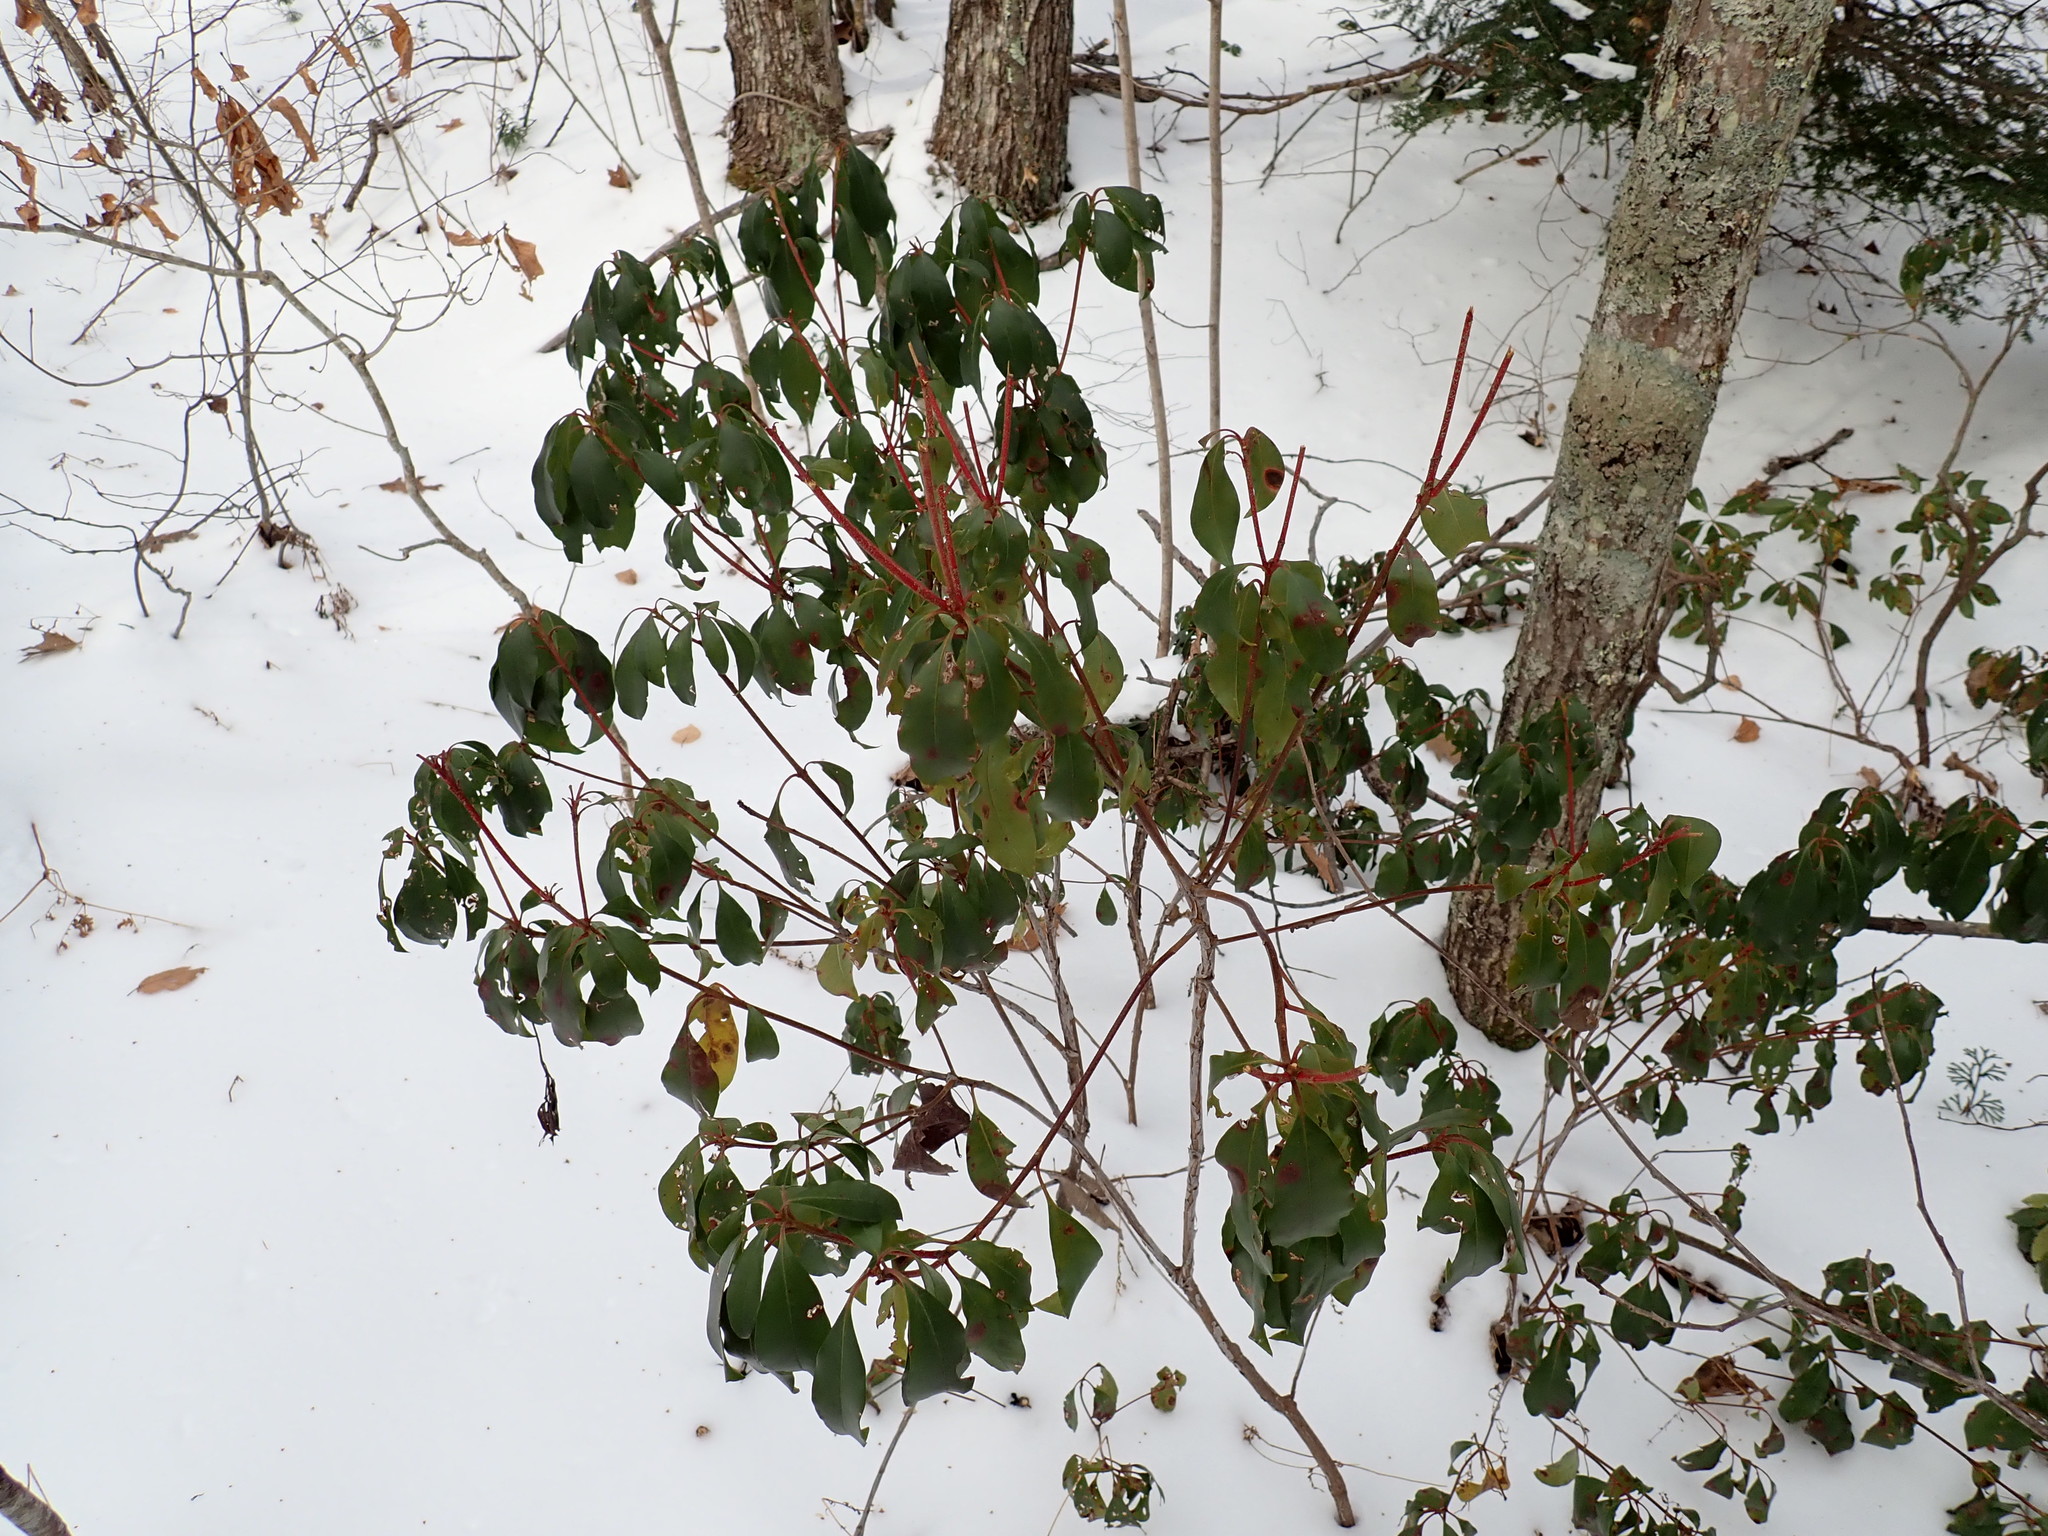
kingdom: Plantae
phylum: Tracheophyta
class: Magnoliopsida
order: Ericales
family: Ericaceae
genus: Kalmia
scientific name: Kalmia latifolia
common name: Mountain-laurel
